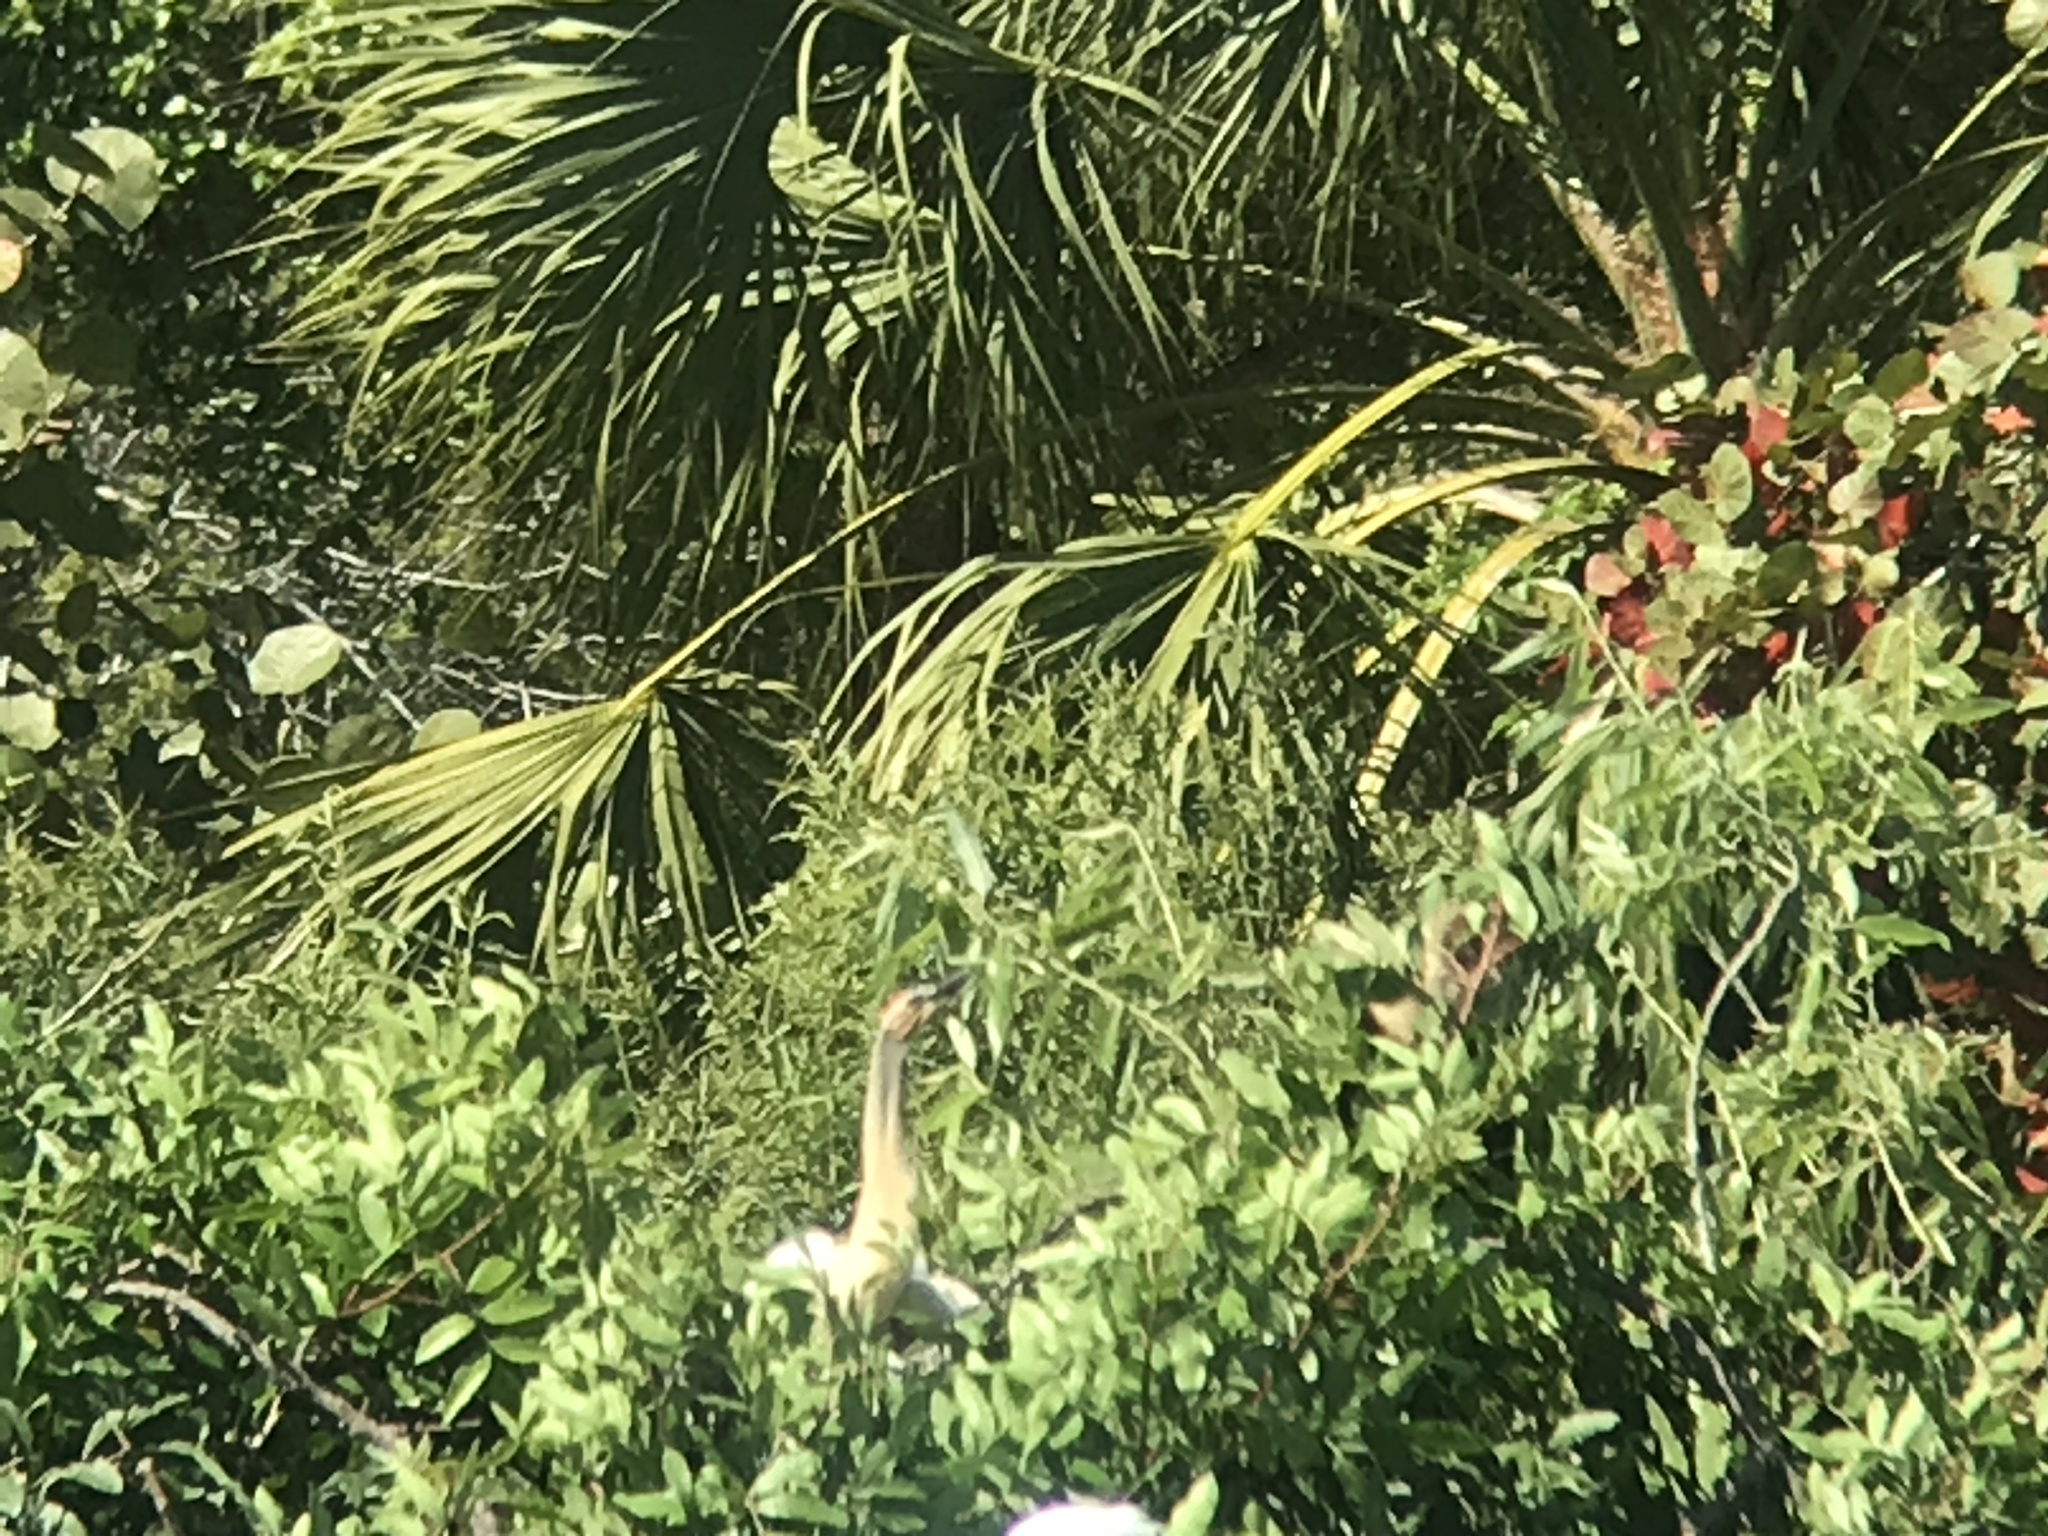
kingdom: Animalia
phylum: Chordata
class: Aves
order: Suliformes
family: Anhingidae
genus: Anhinga
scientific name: Anhinga anhinga
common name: Anhinga
